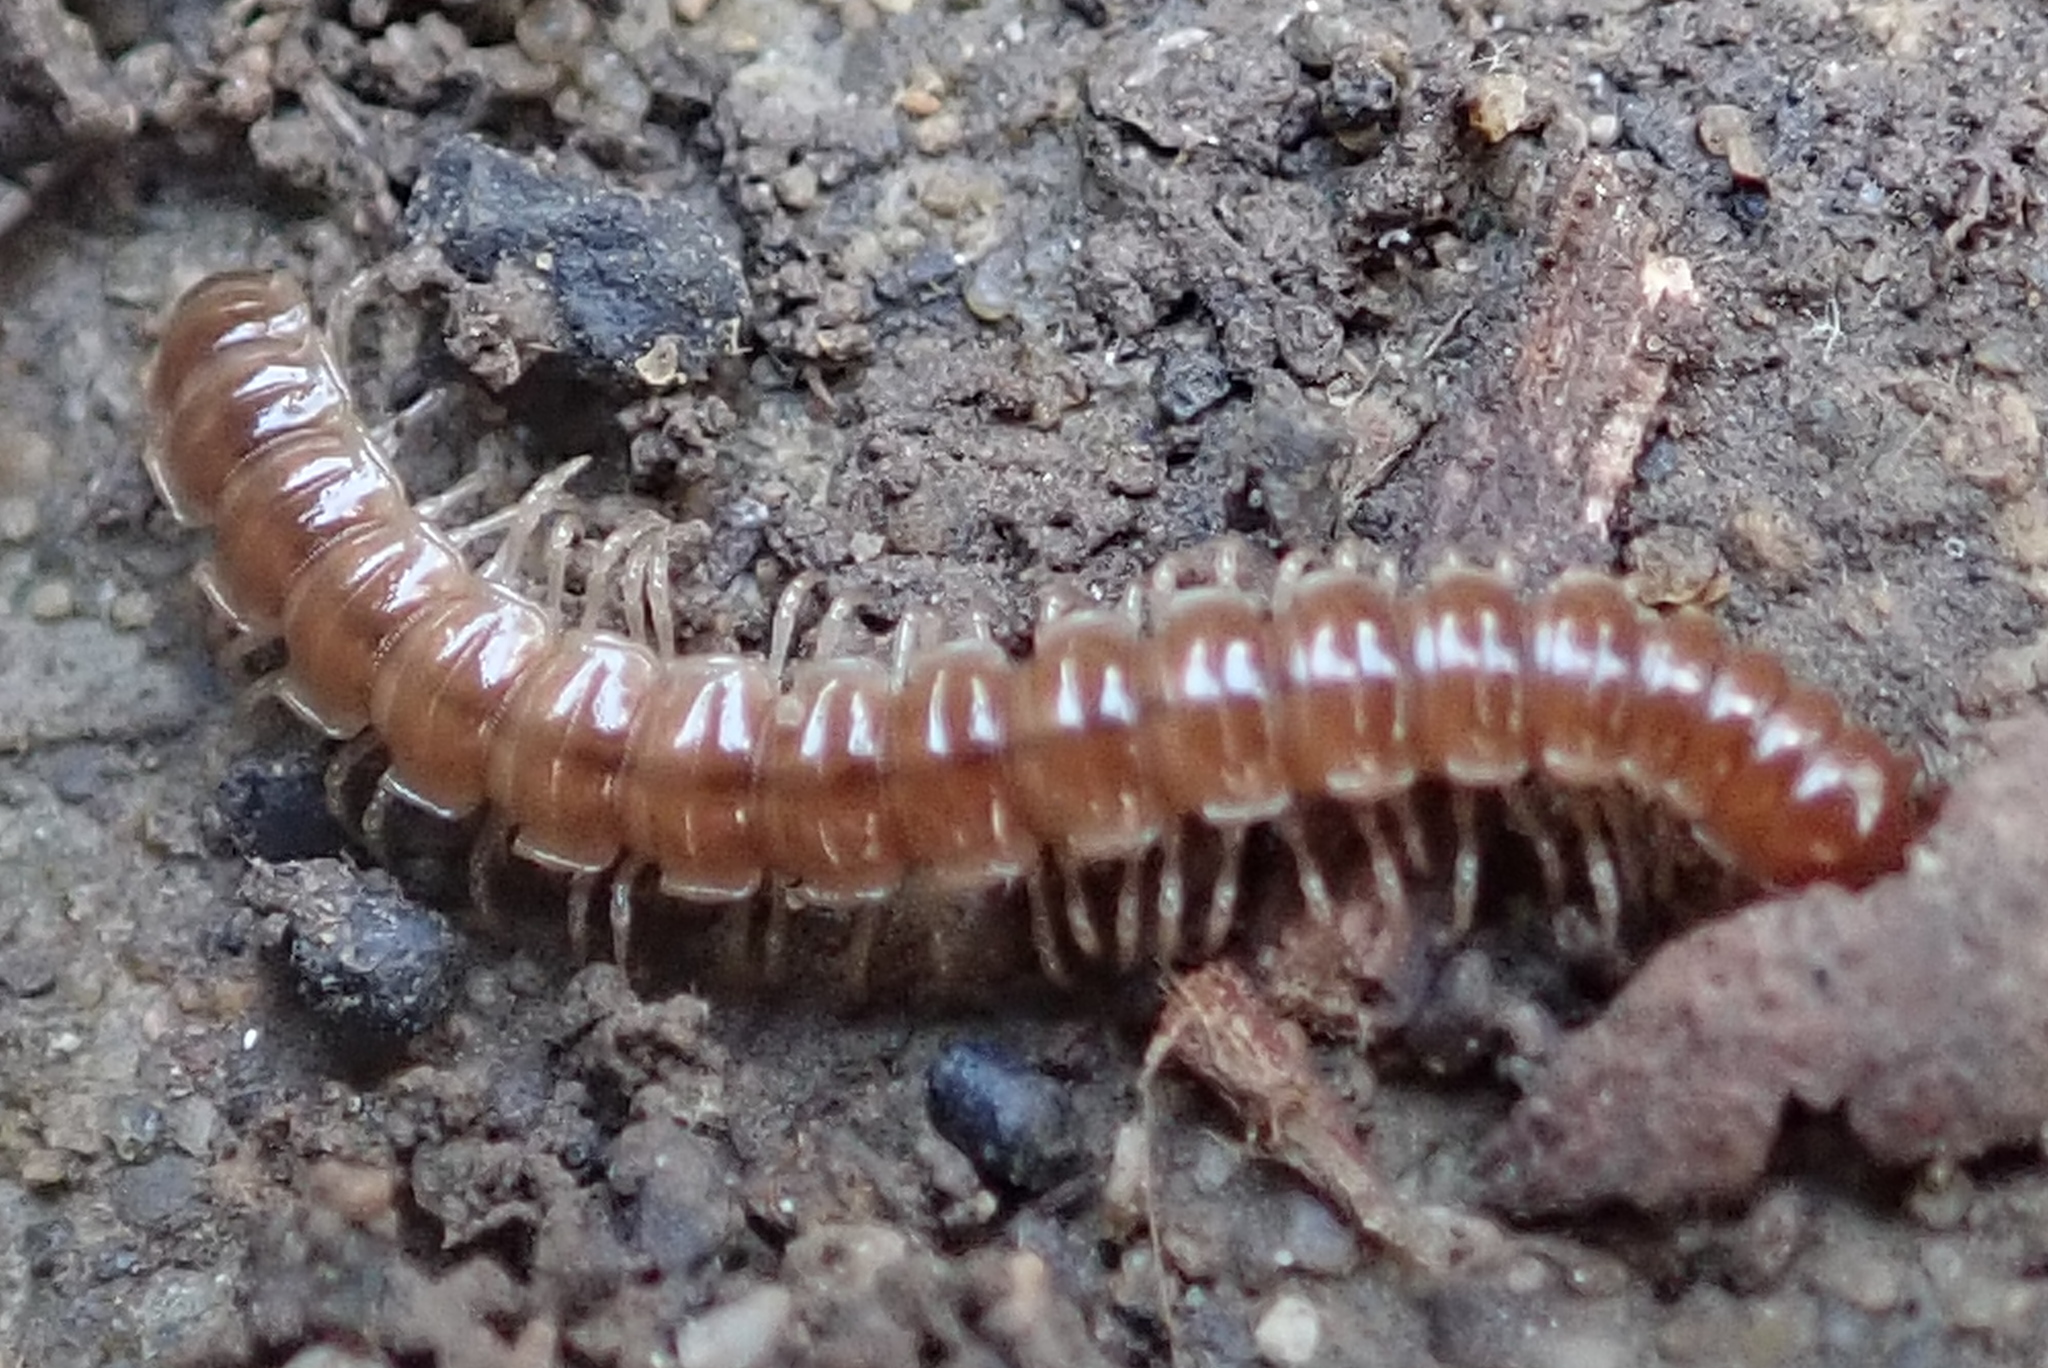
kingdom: Animalia
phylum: Arthropoda
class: Diplopoda
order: Polydesmida
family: Paradoxosomatidae
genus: Oxidus
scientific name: Oxidus gracilis
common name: Greenhouse millipede
